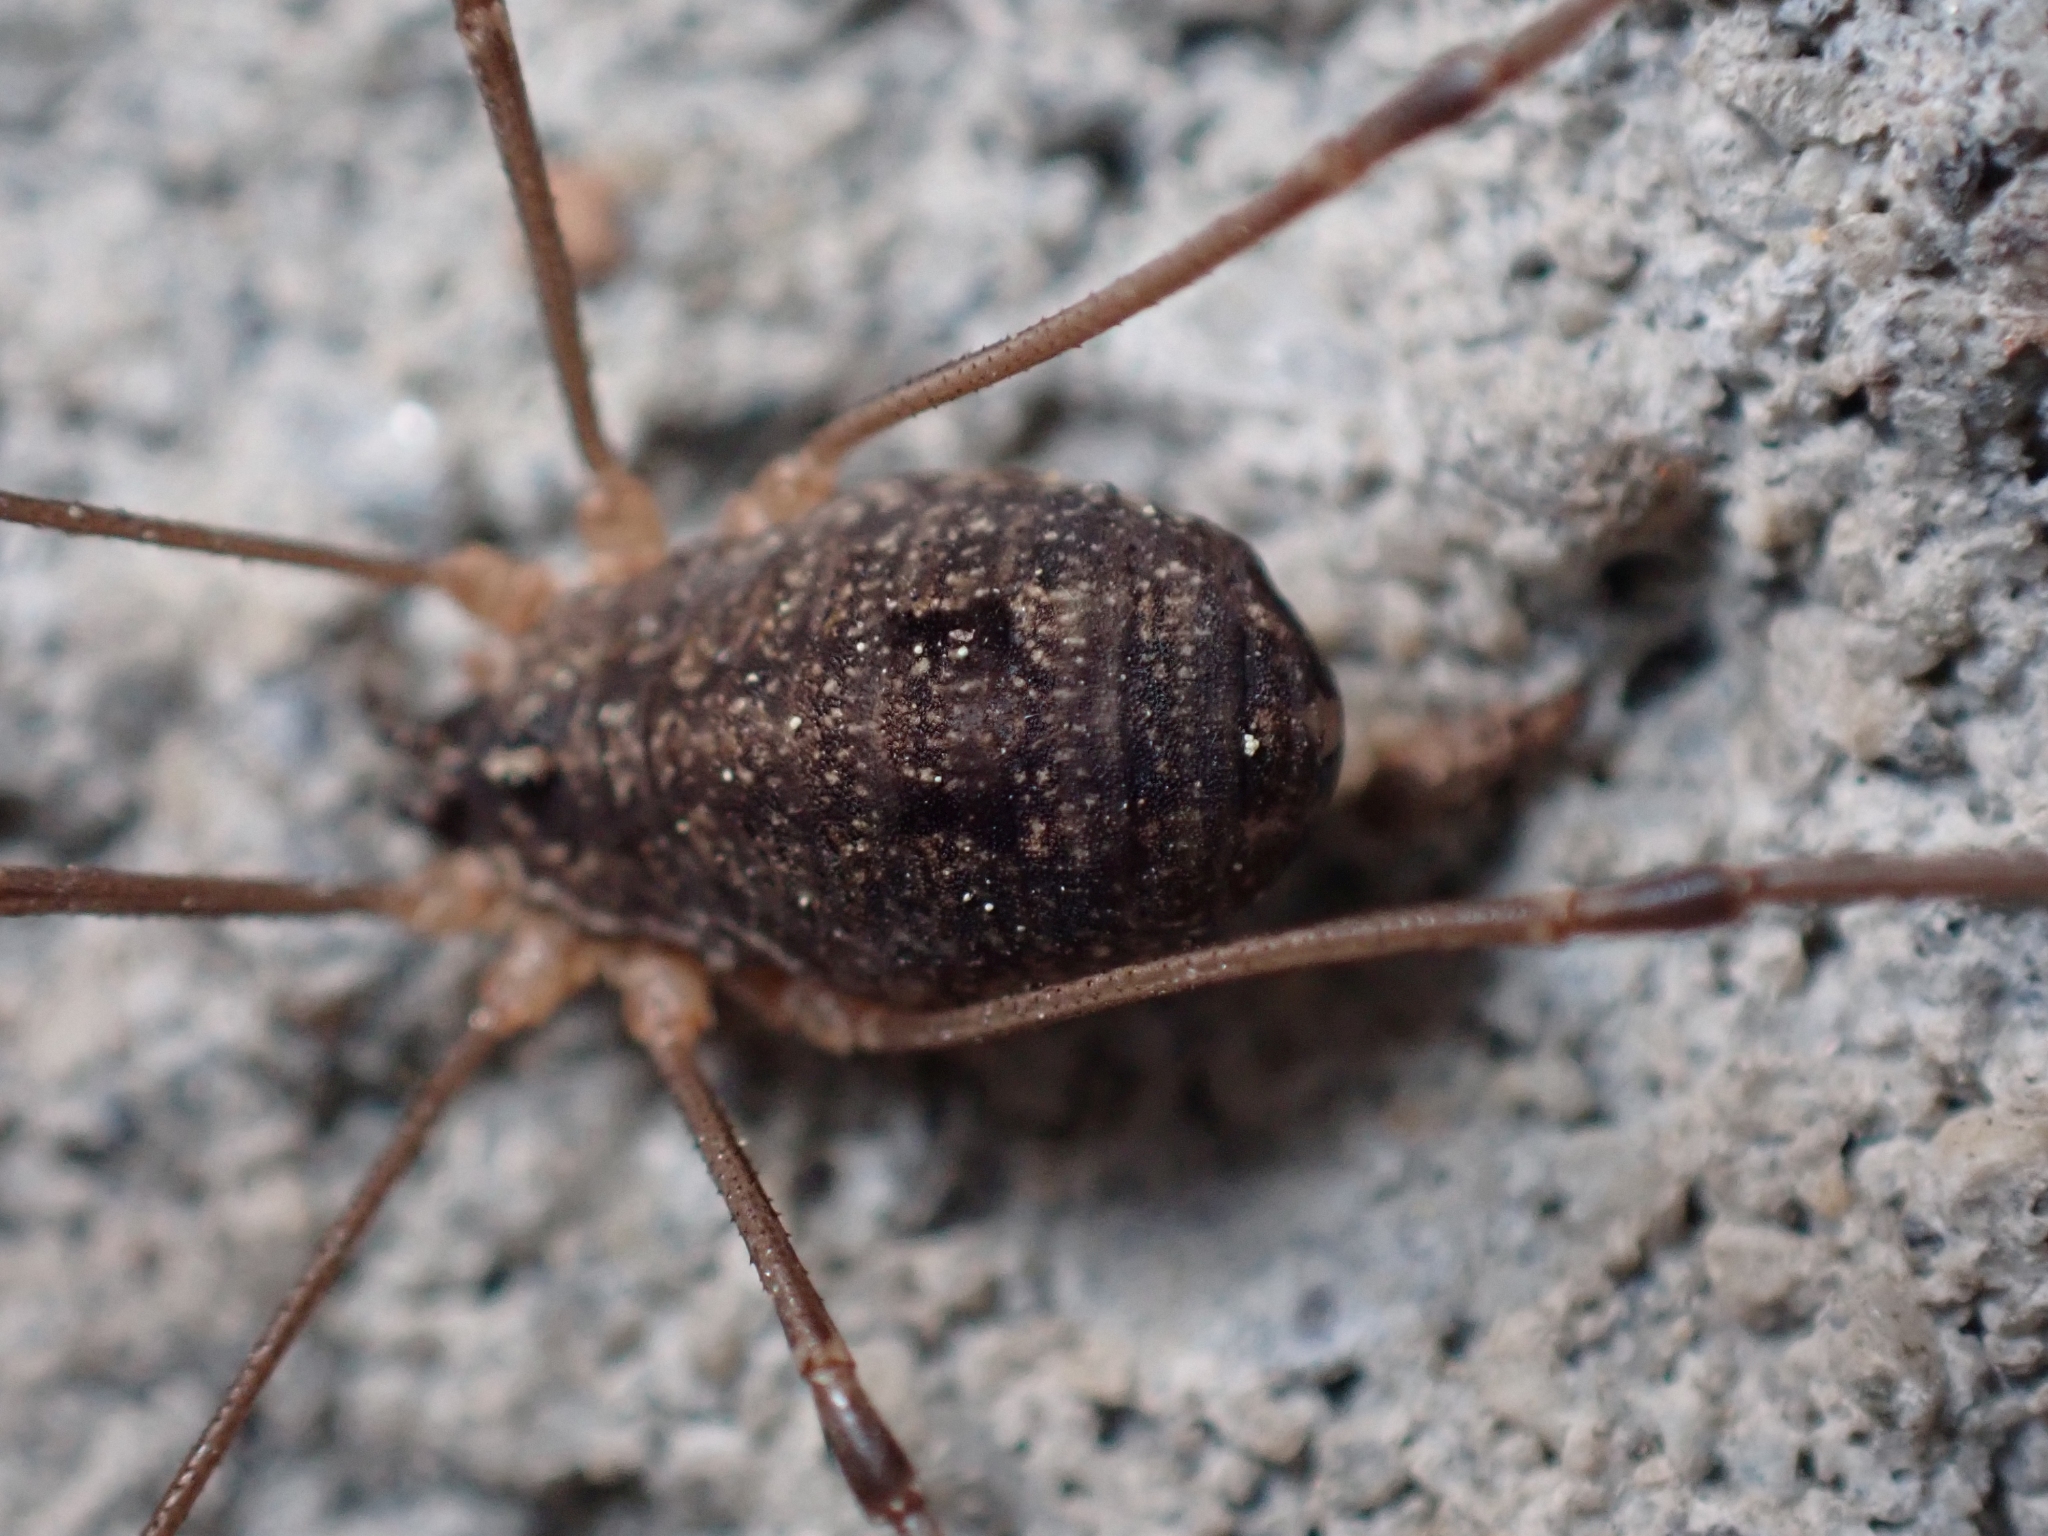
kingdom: Animalia
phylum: Arthropoda
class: Arachnida
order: Opiliones
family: Sclerosomatidae
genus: Togwoteeus
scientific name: Togwoteeus biceps
